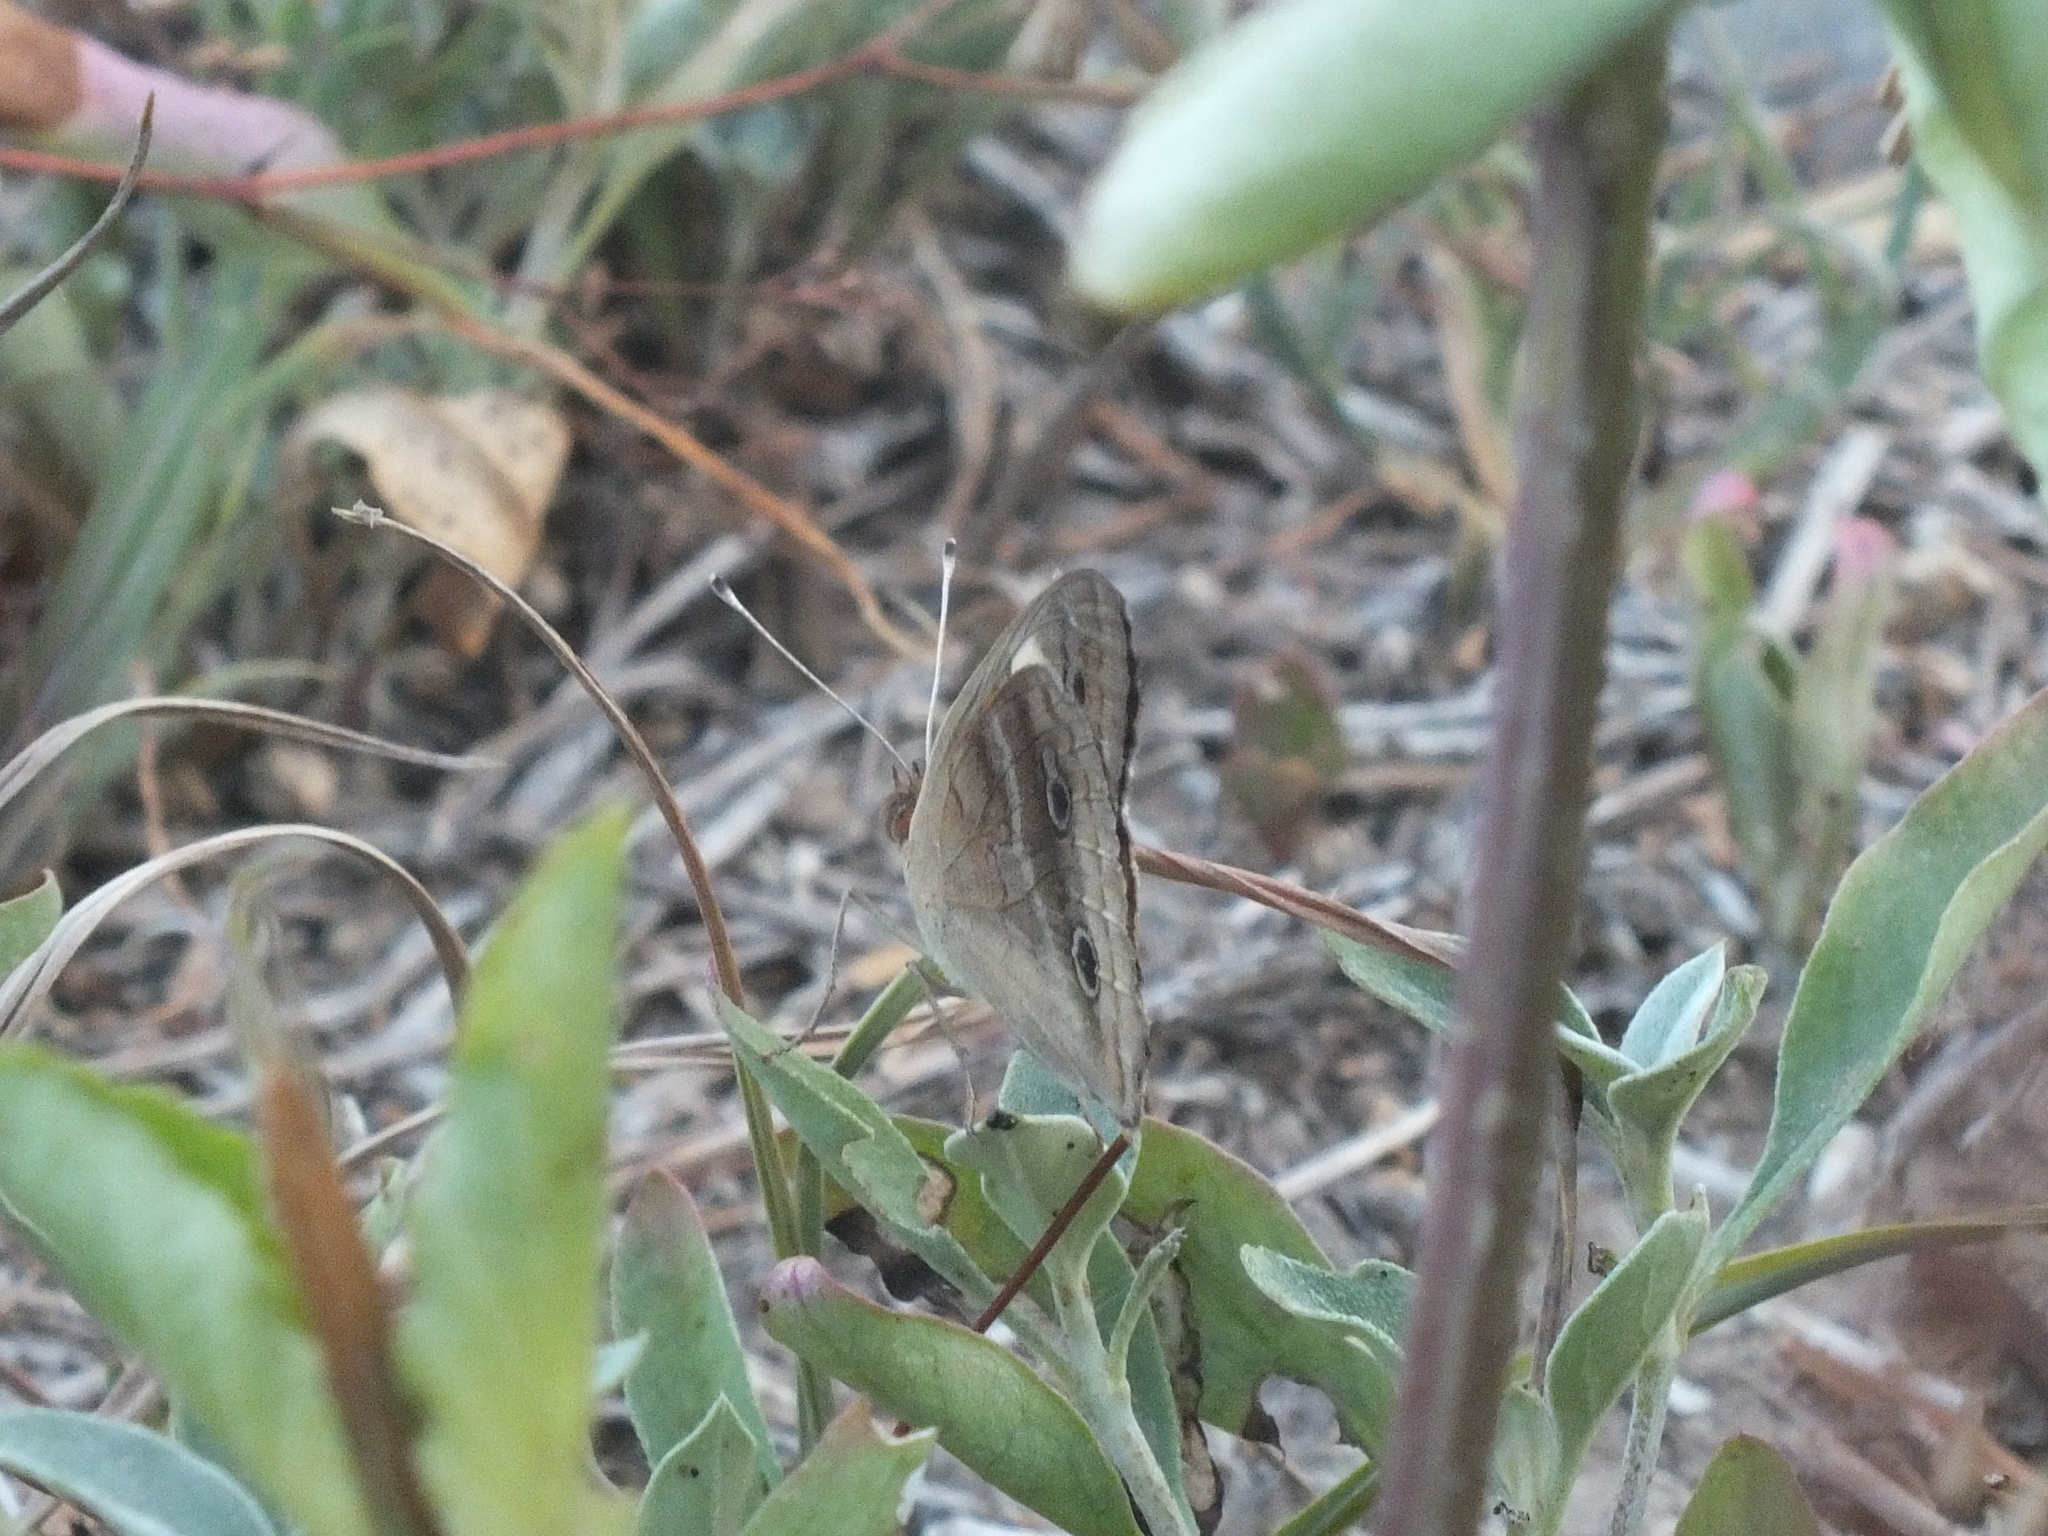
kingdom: Animalia
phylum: Arthropoda
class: Insecta
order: Lepidoptera
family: Nymphalidae
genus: Junonia
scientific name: Junonia lavinia
